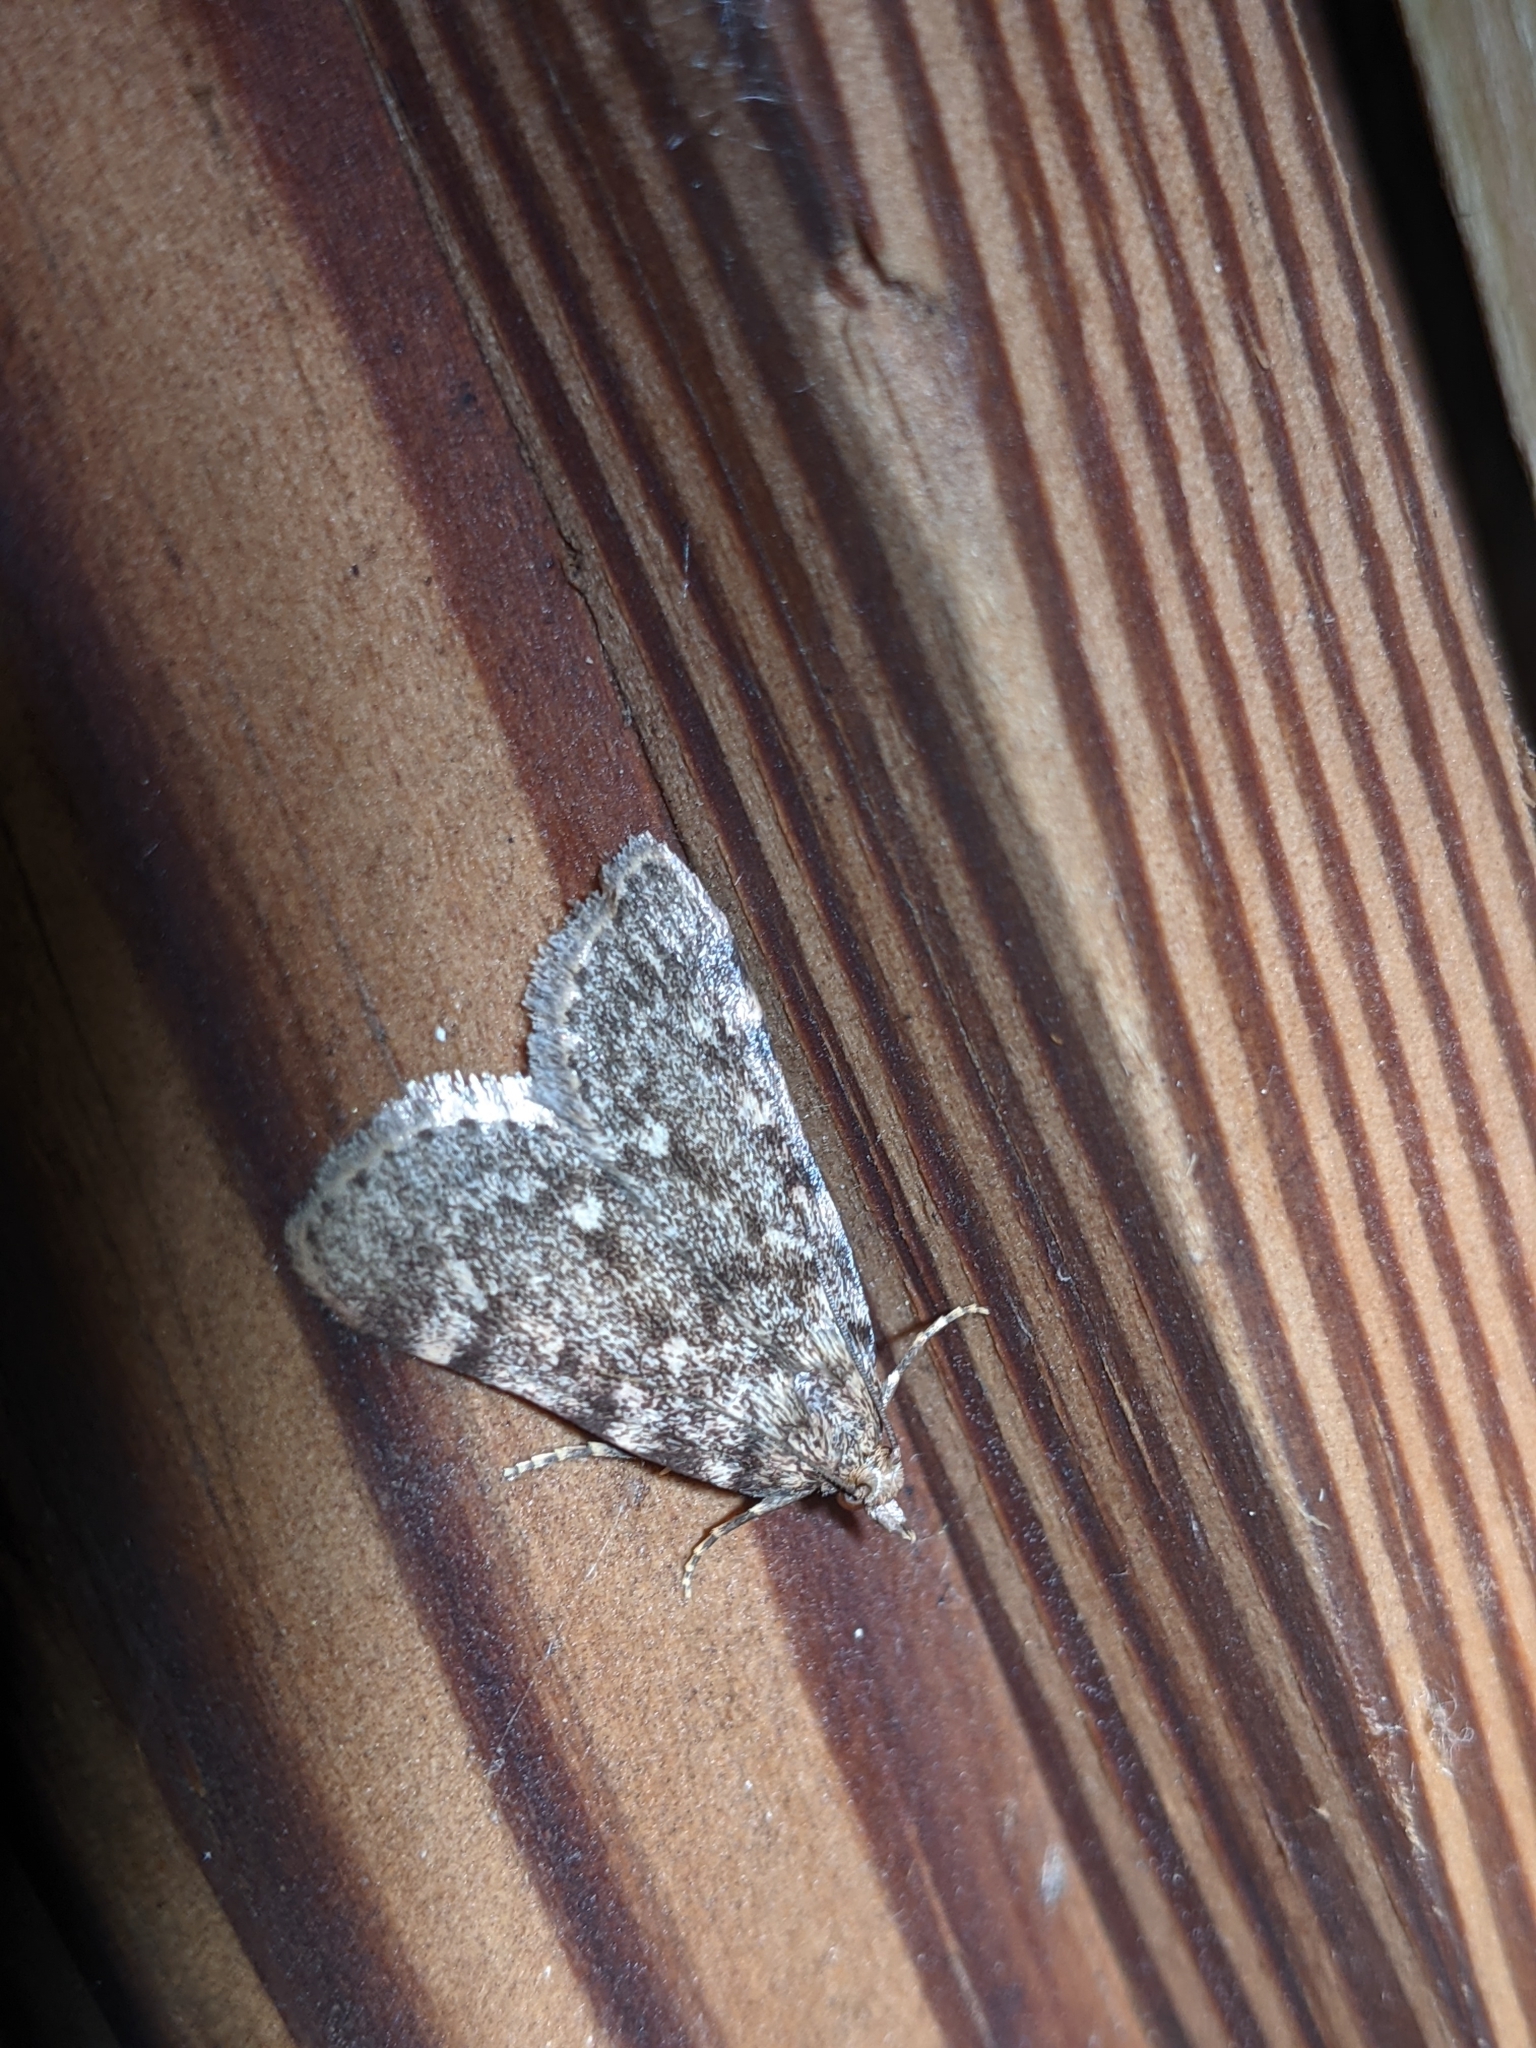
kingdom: Animalia
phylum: Arthropoda
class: Insecta
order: Lepidoptera
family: Pyralidae
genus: Aglossa
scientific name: Aglossa pinguinalis
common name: Large tabby
